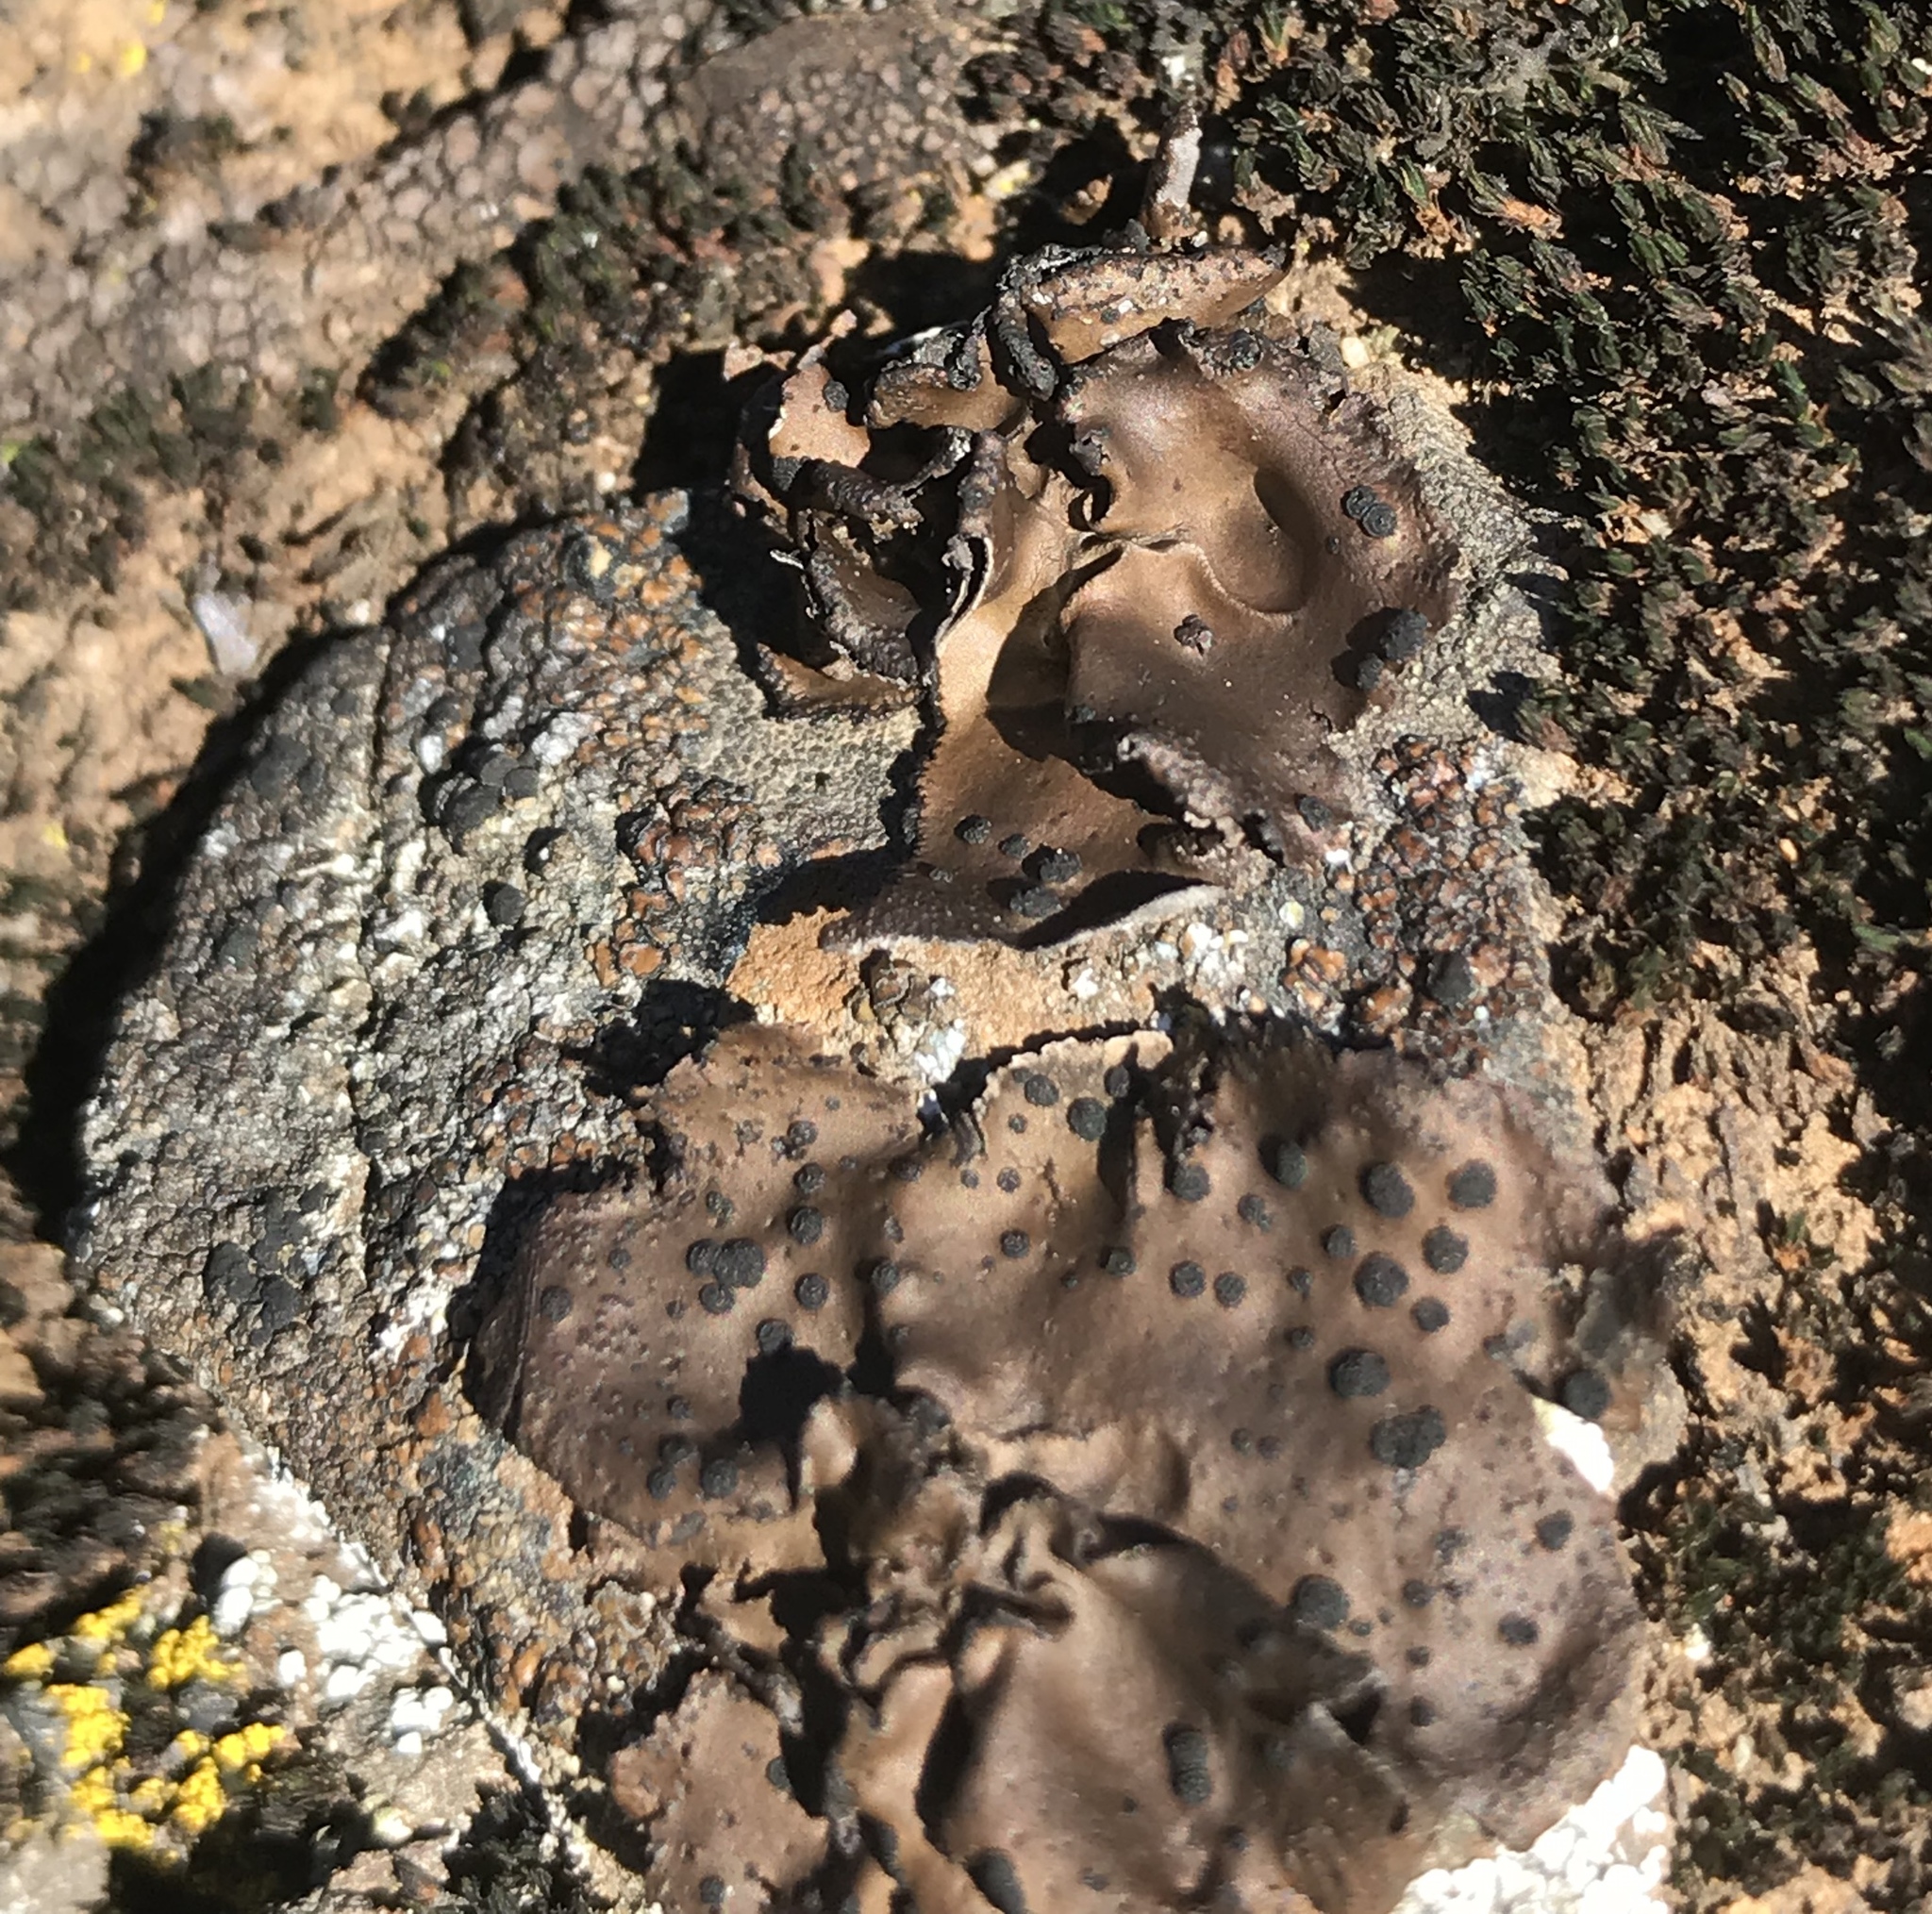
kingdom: Fungi
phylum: Ascomycota
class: Lecanoromycetes
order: Umbilicariales
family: Umbilicariaceae
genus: Umbilicaria
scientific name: Umbilicaria phaea
